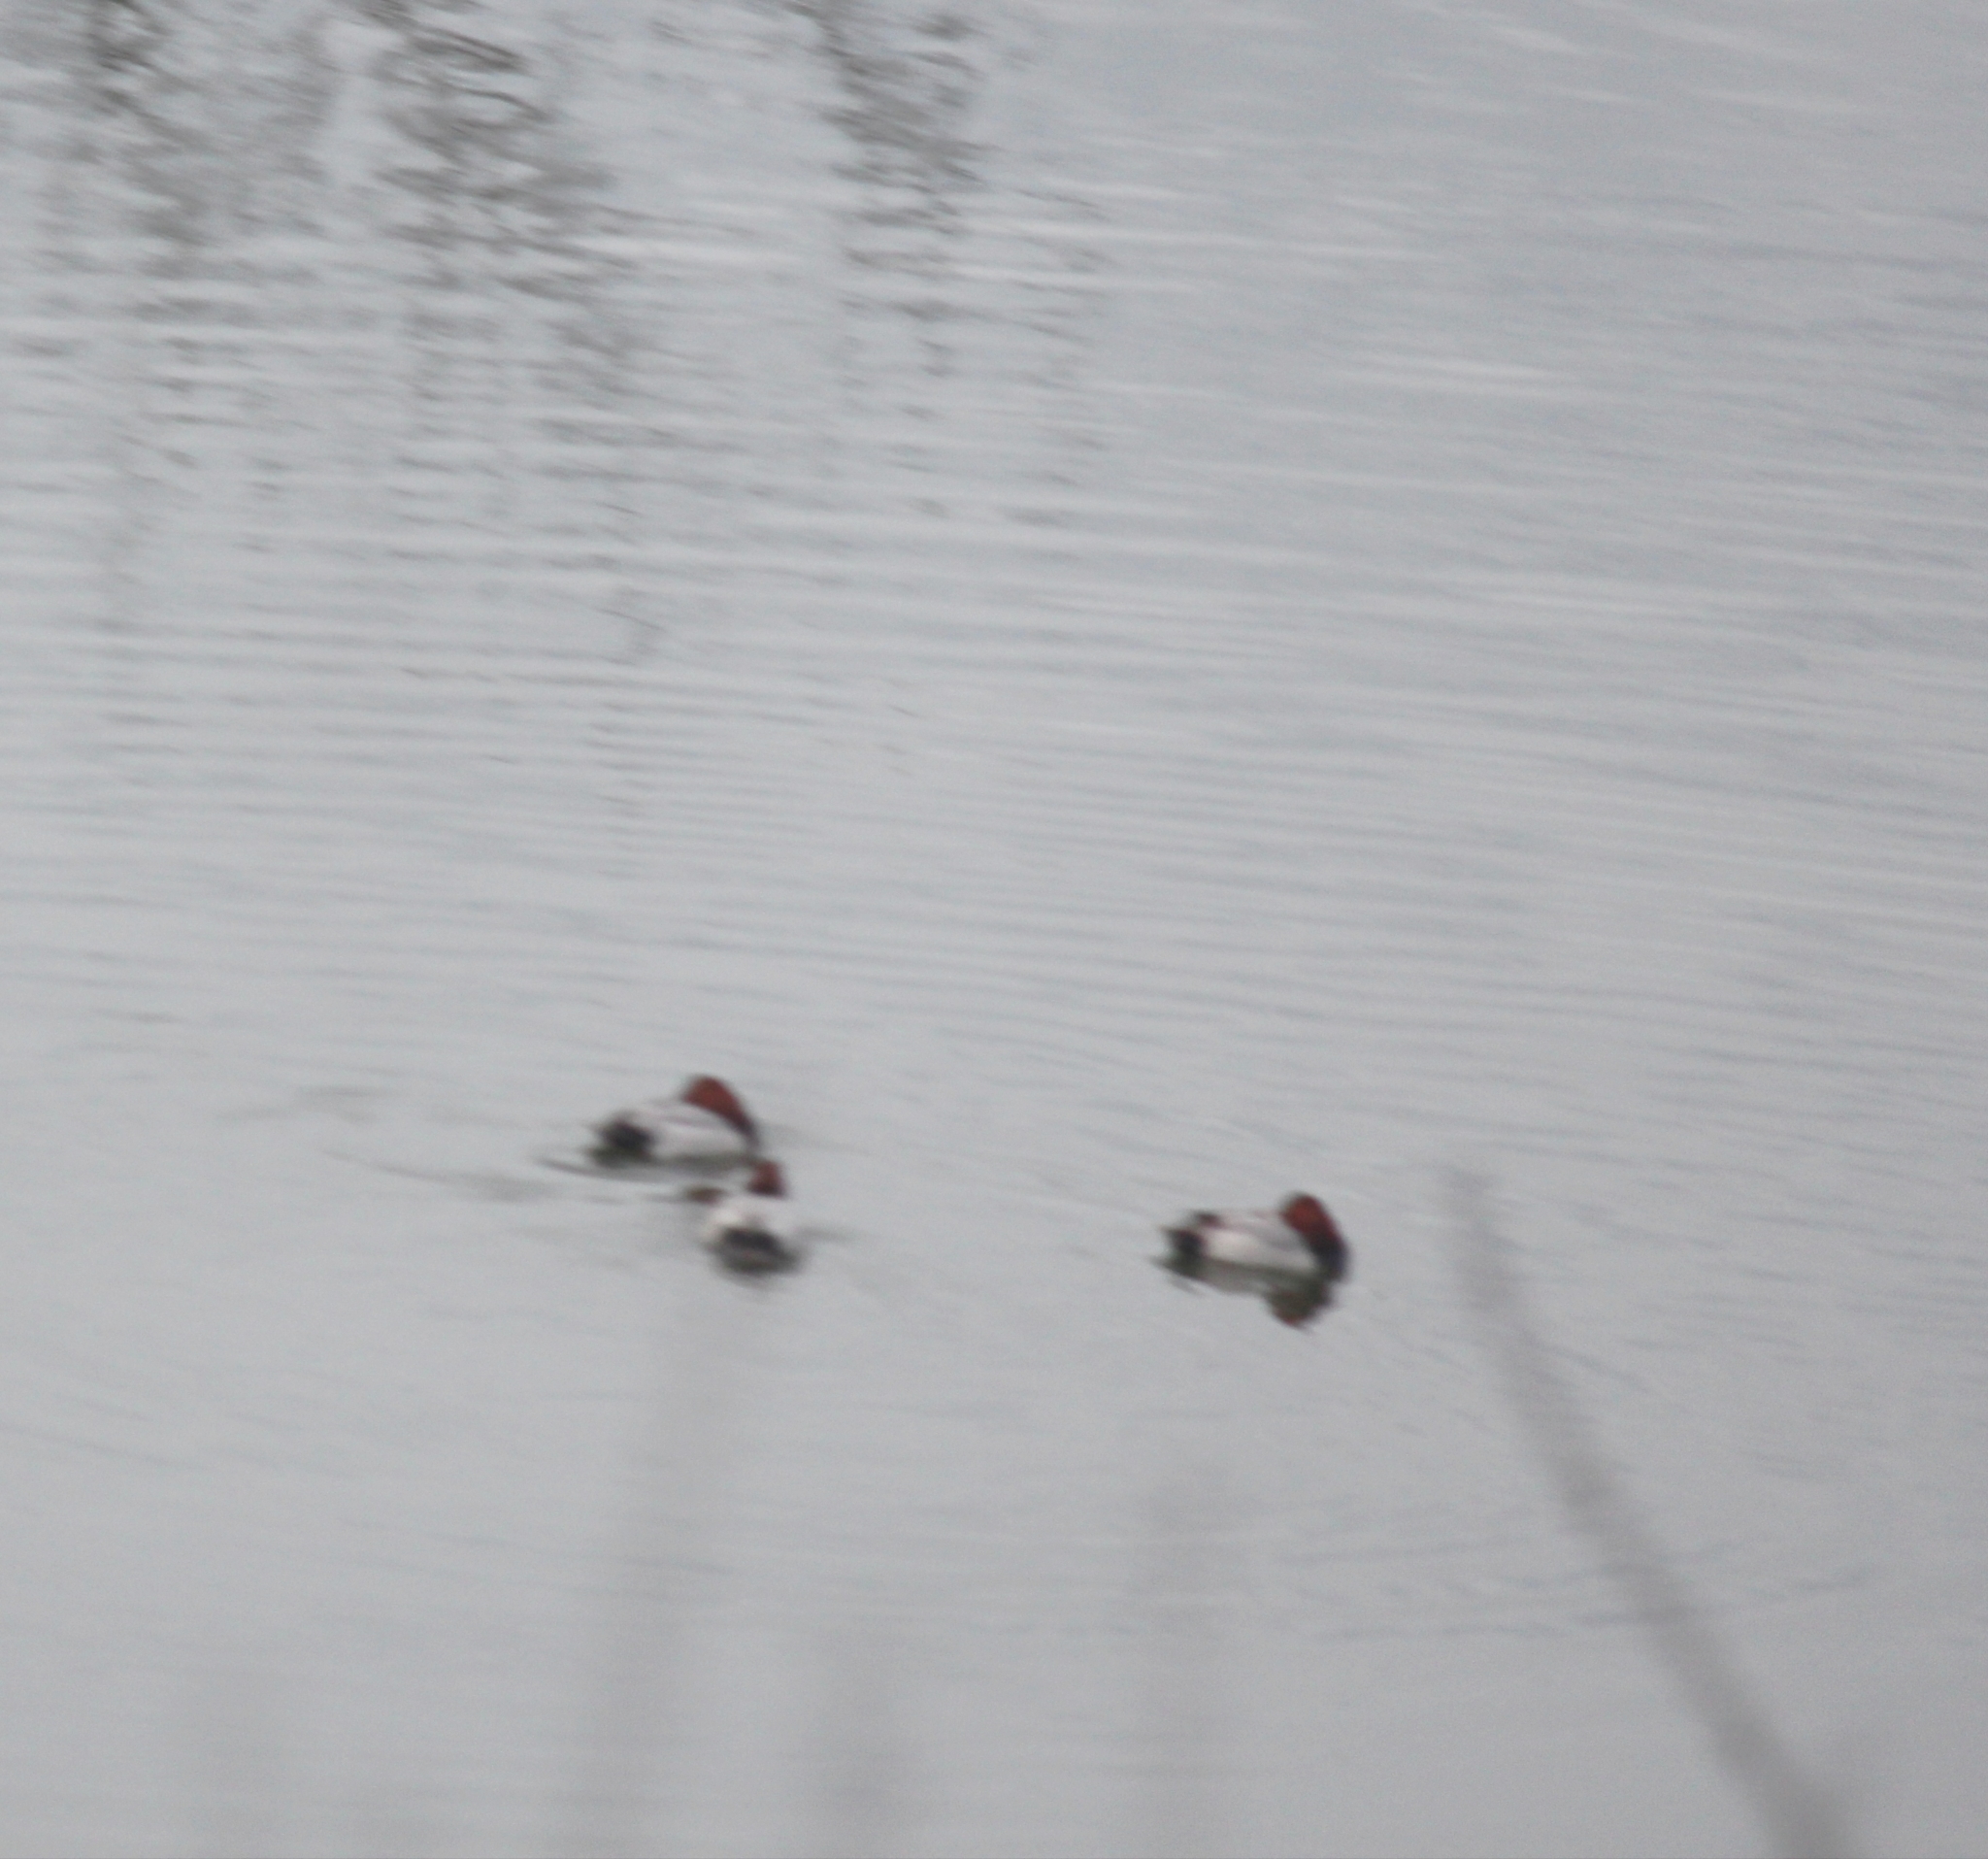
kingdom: Animalia
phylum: Chordata
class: Aves
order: Anseriformes
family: Anatidae
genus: Aythya
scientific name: Aythya ferina
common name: Common pochard
